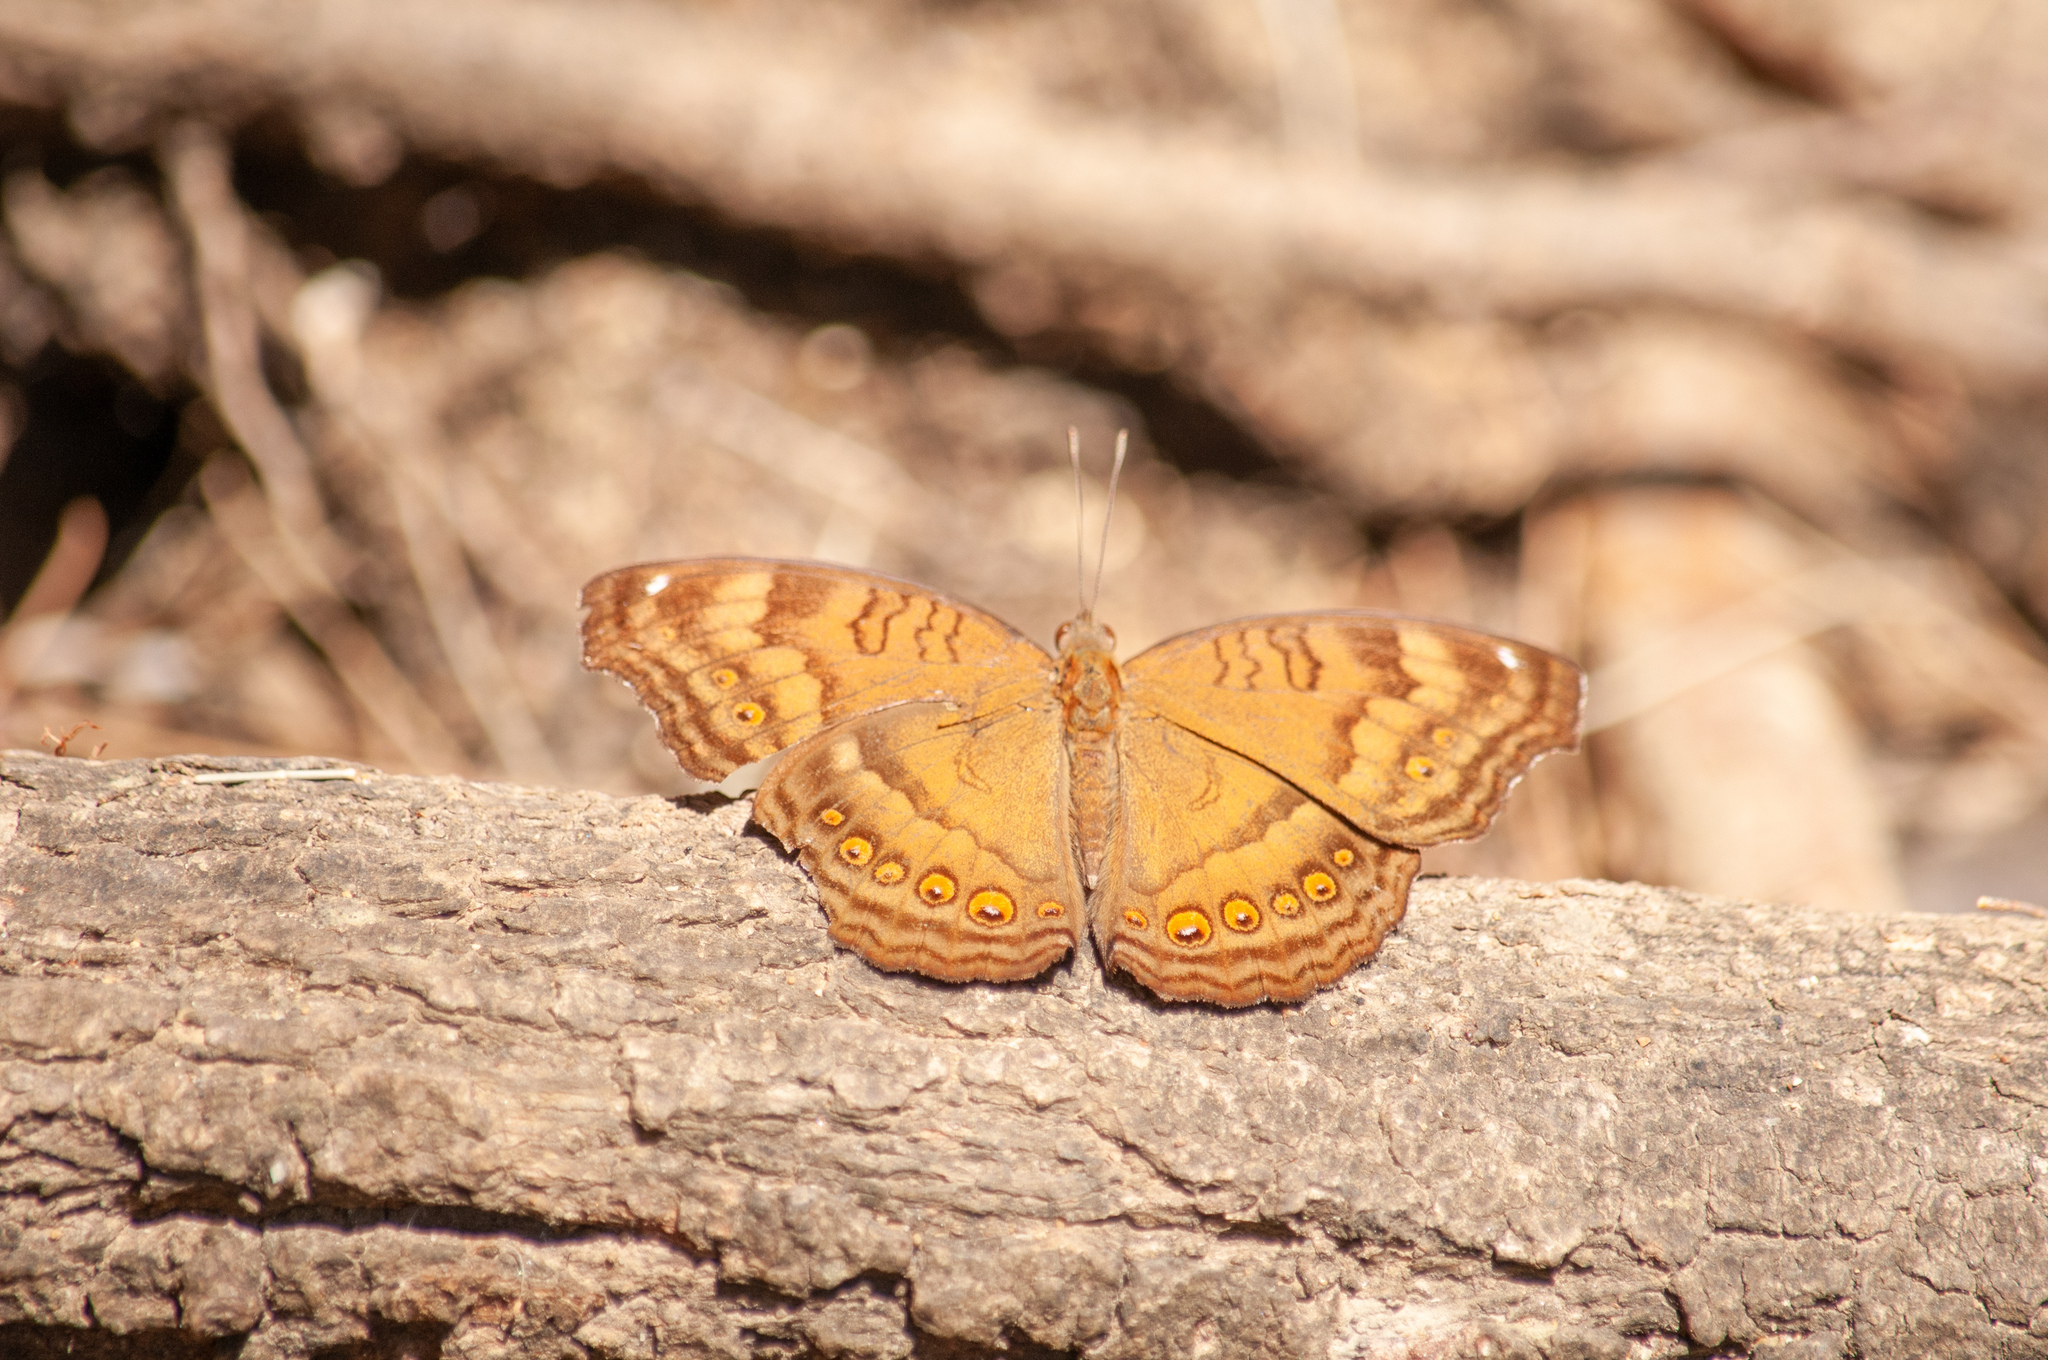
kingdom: Animalia
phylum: Arthropoda
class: Insecta
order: Lepidoptera
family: Nymphalidae
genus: Junonia
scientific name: Junonia hedonia
